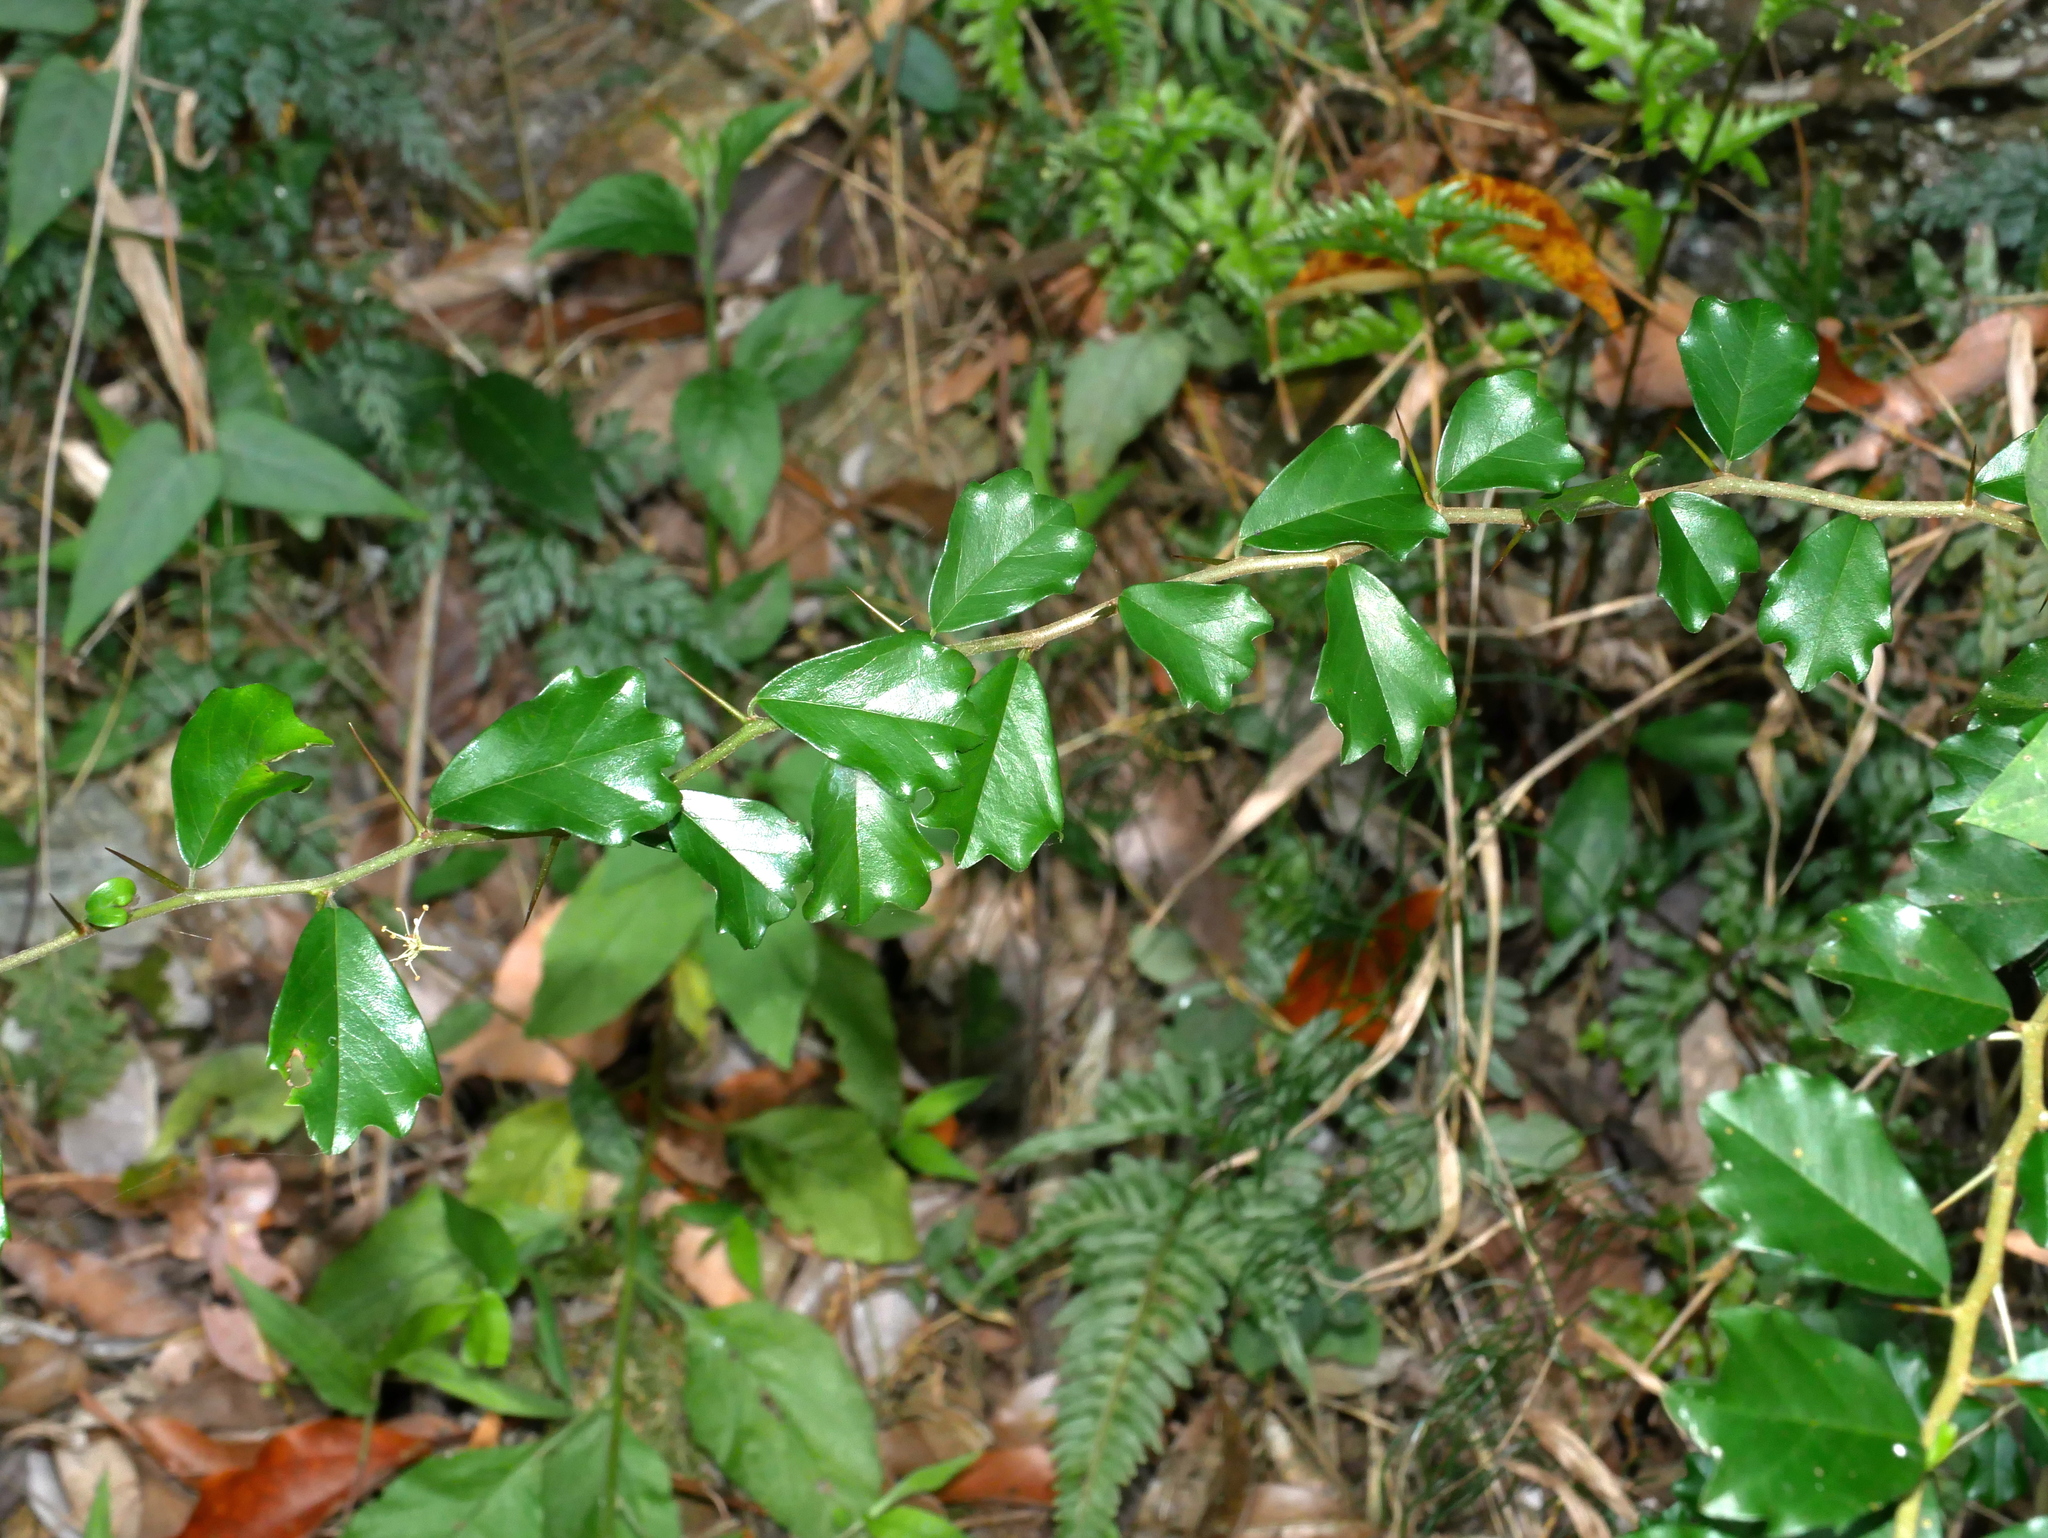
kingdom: Plantae
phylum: Tracheophyta
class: Magnoliopsida
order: Rosales
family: Moraceae
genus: Maclura
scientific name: Maclura cochinchinensis
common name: Cockspurthorn
